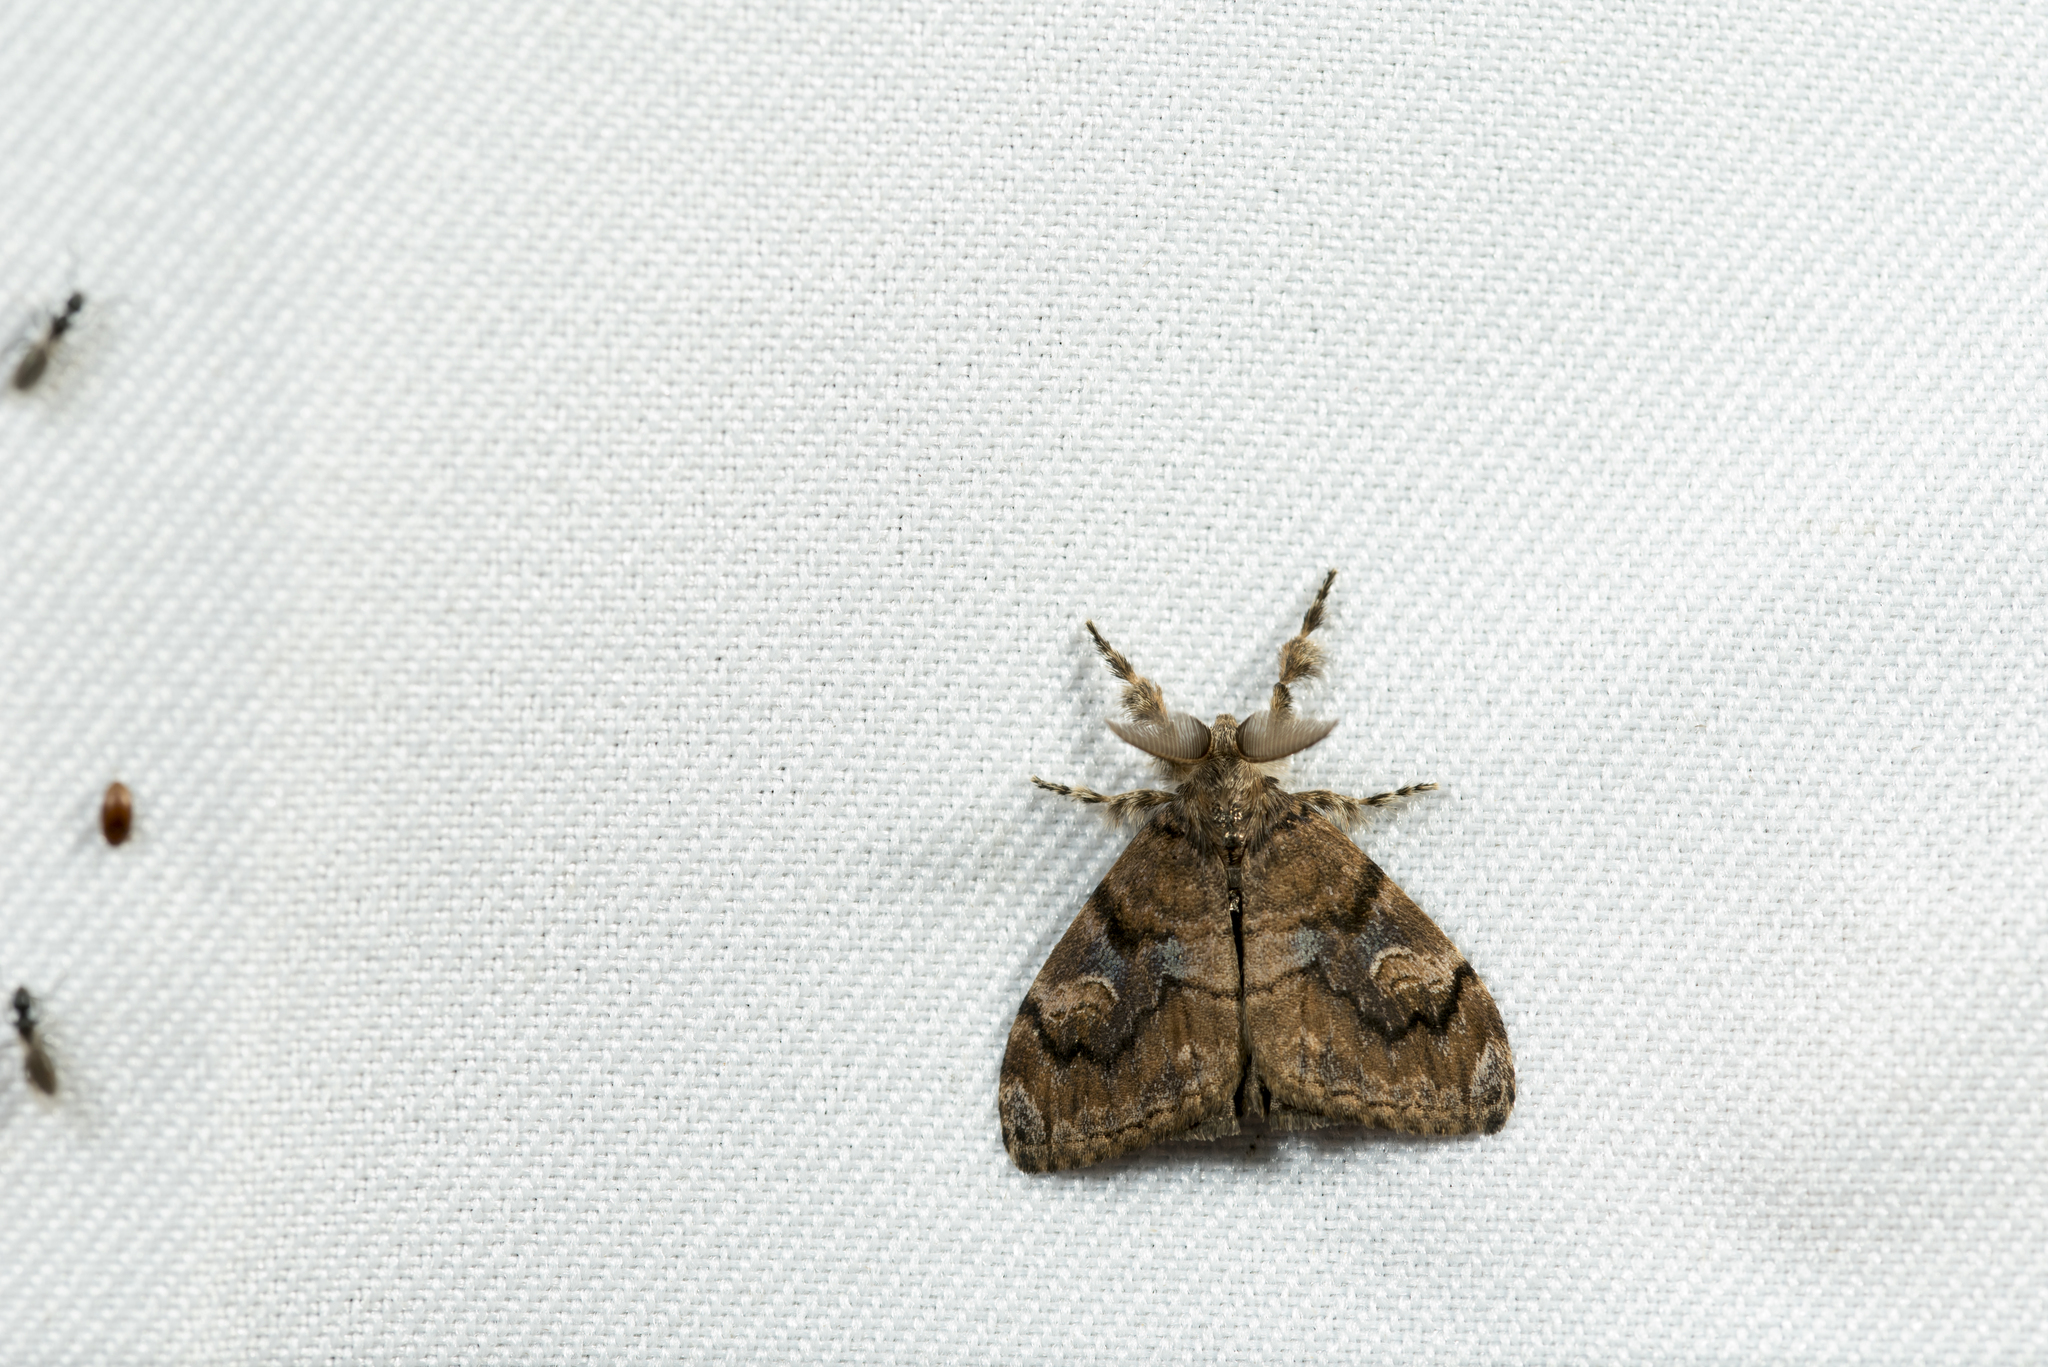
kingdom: Animalia
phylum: Arthropoda
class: Insecta
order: Lepidoptera
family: Erebidae
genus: Orgyia
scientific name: Orgyia postica
